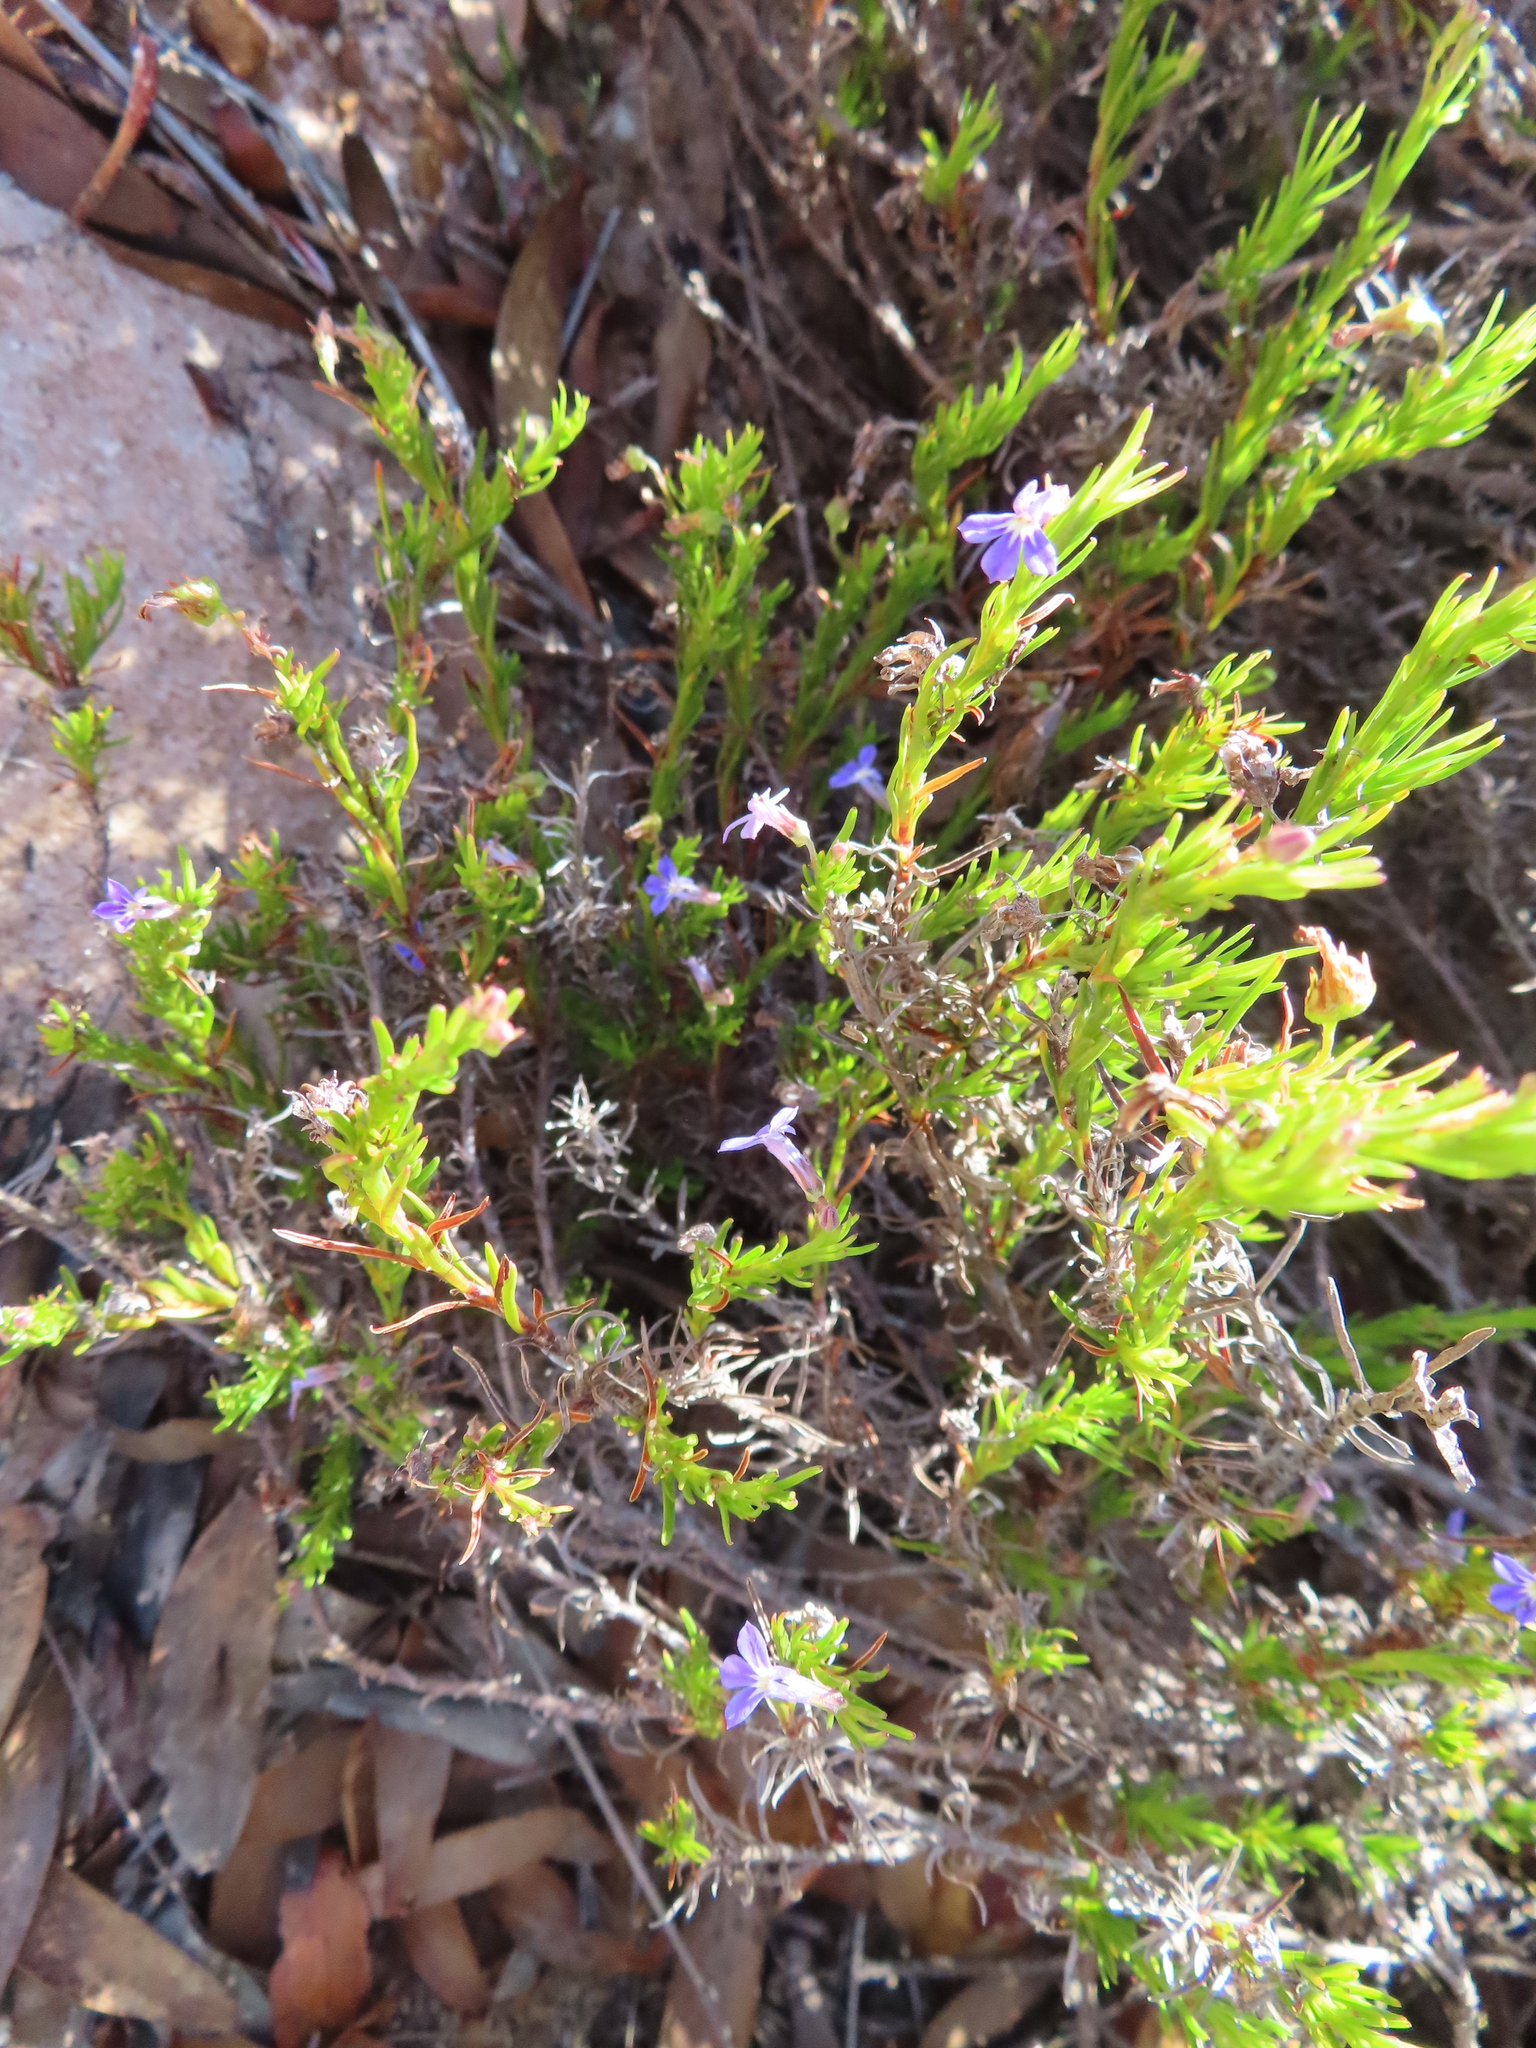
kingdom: Plantae
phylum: Tracheophyta
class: Magnoliopsida
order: Asterales
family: Campanulaceae
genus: Lobelia
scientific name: Lobelia pinifolia
